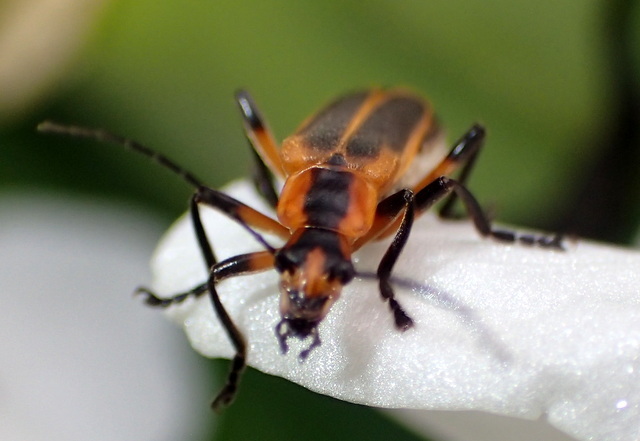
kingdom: Animalia
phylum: Arthropoda
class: Insecta
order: Coleoptera
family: Cantharidae
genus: Chauliognathus
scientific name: Chauliognathus marginatus
